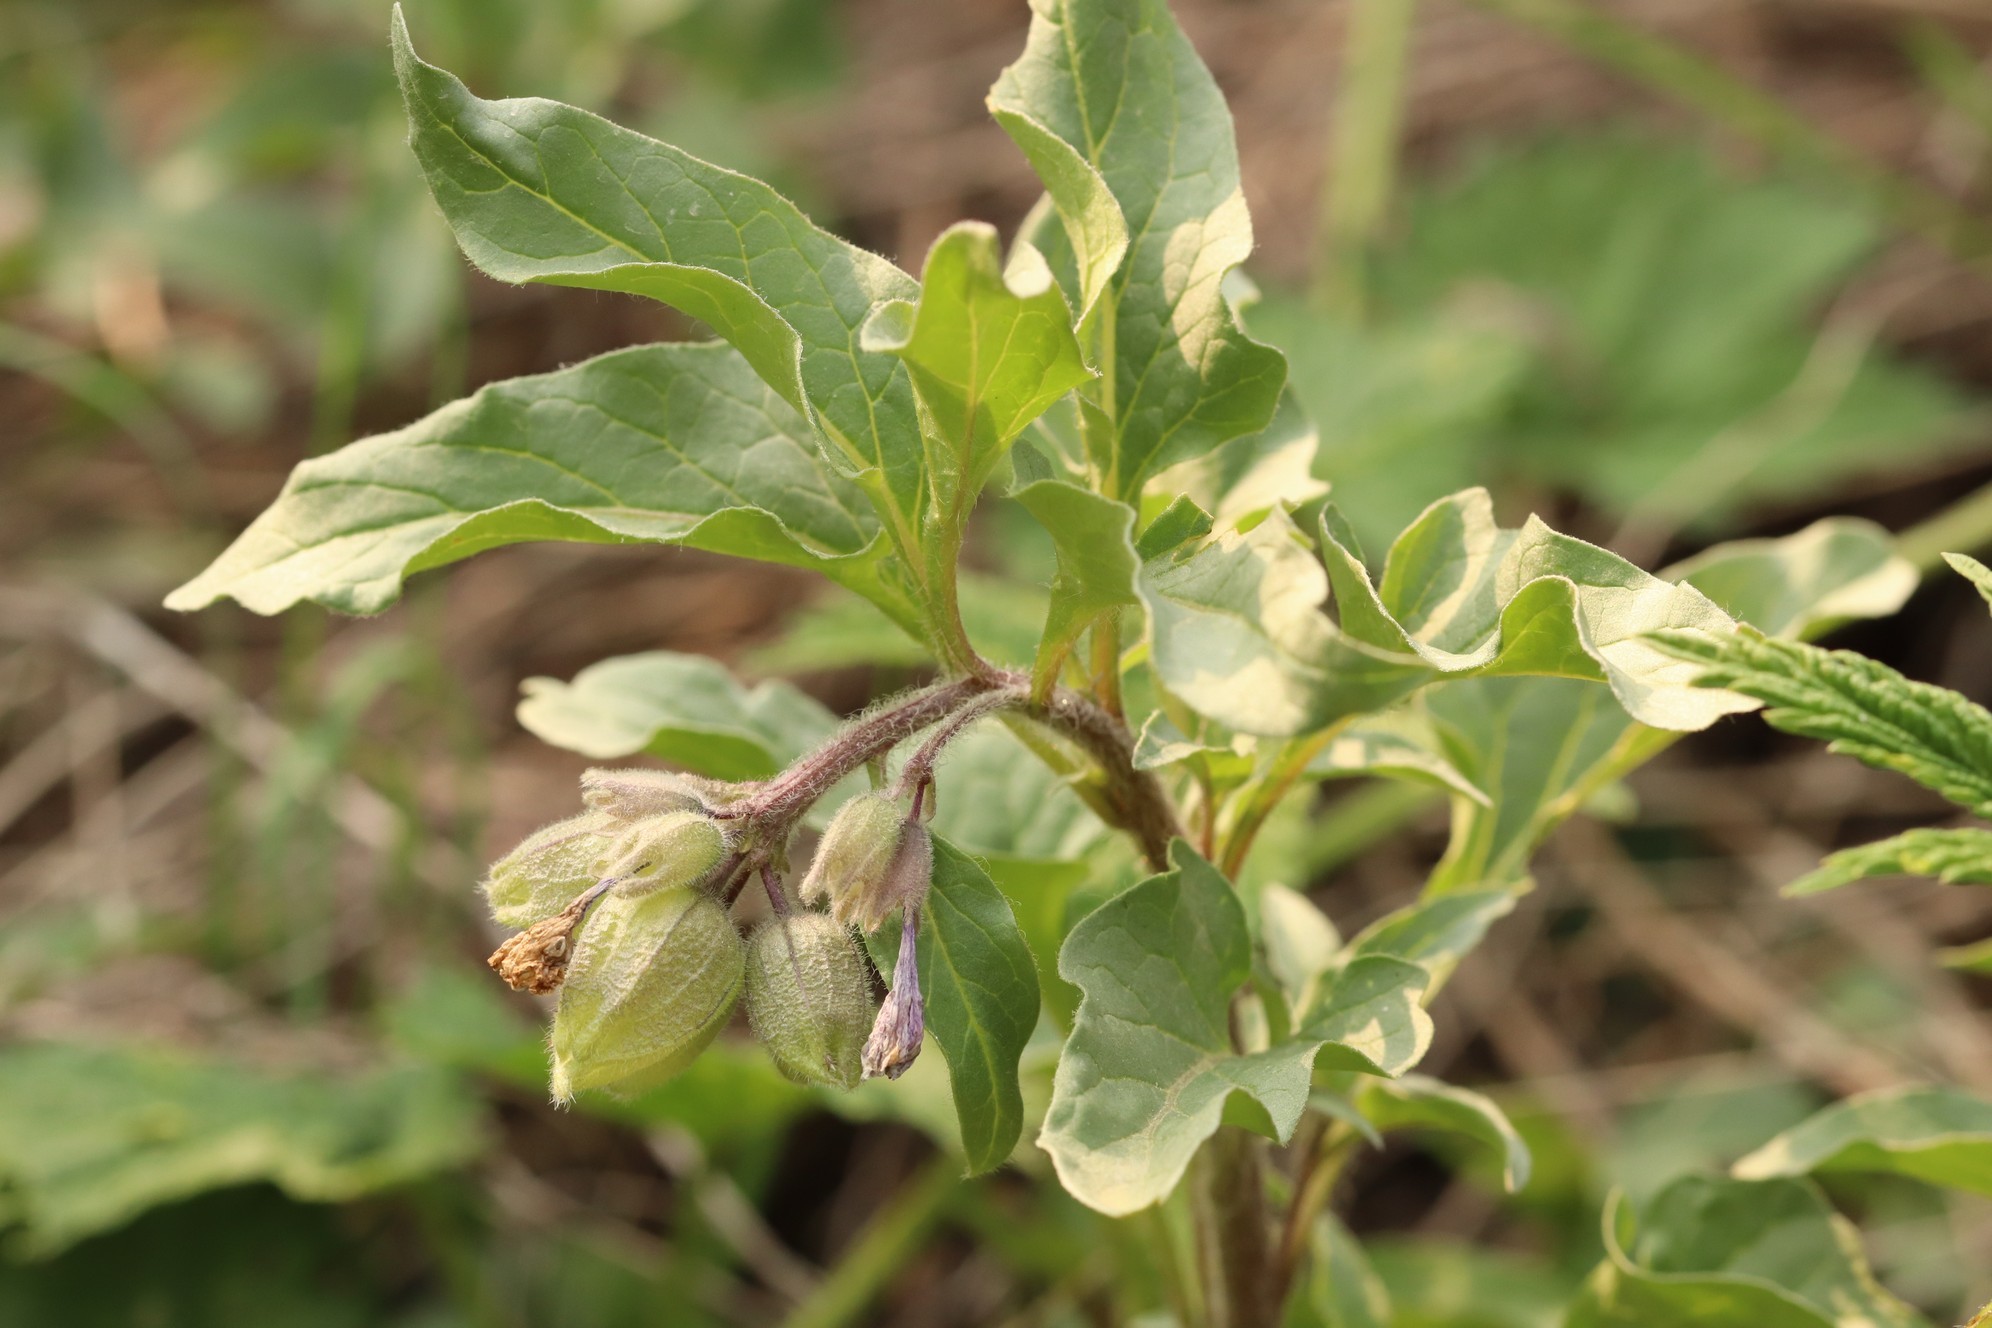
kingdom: Plantae
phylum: Tracheophyta
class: Magnoliopsida
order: Solanales
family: Solanaceae
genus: Physochlaina
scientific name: Physochlaina physaloides
